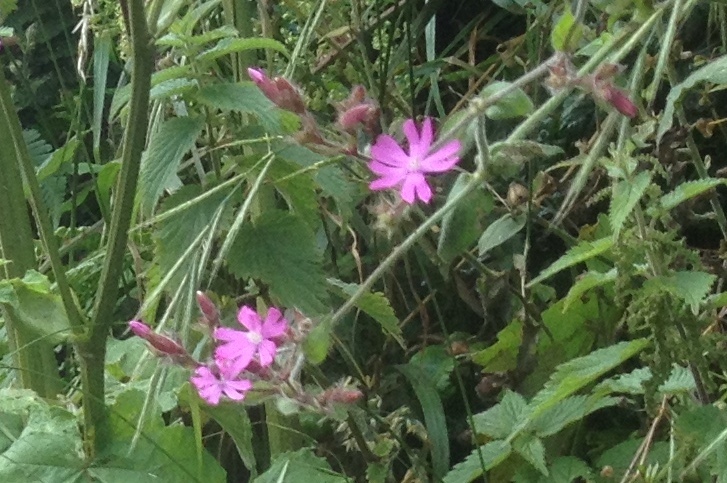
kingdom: Plantae
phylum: Tracheophyta
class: Magnoliopsida
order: Caryophyllales
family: Caryophyllaceae
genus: Silene
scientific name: Silene dioica
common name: Red campion
